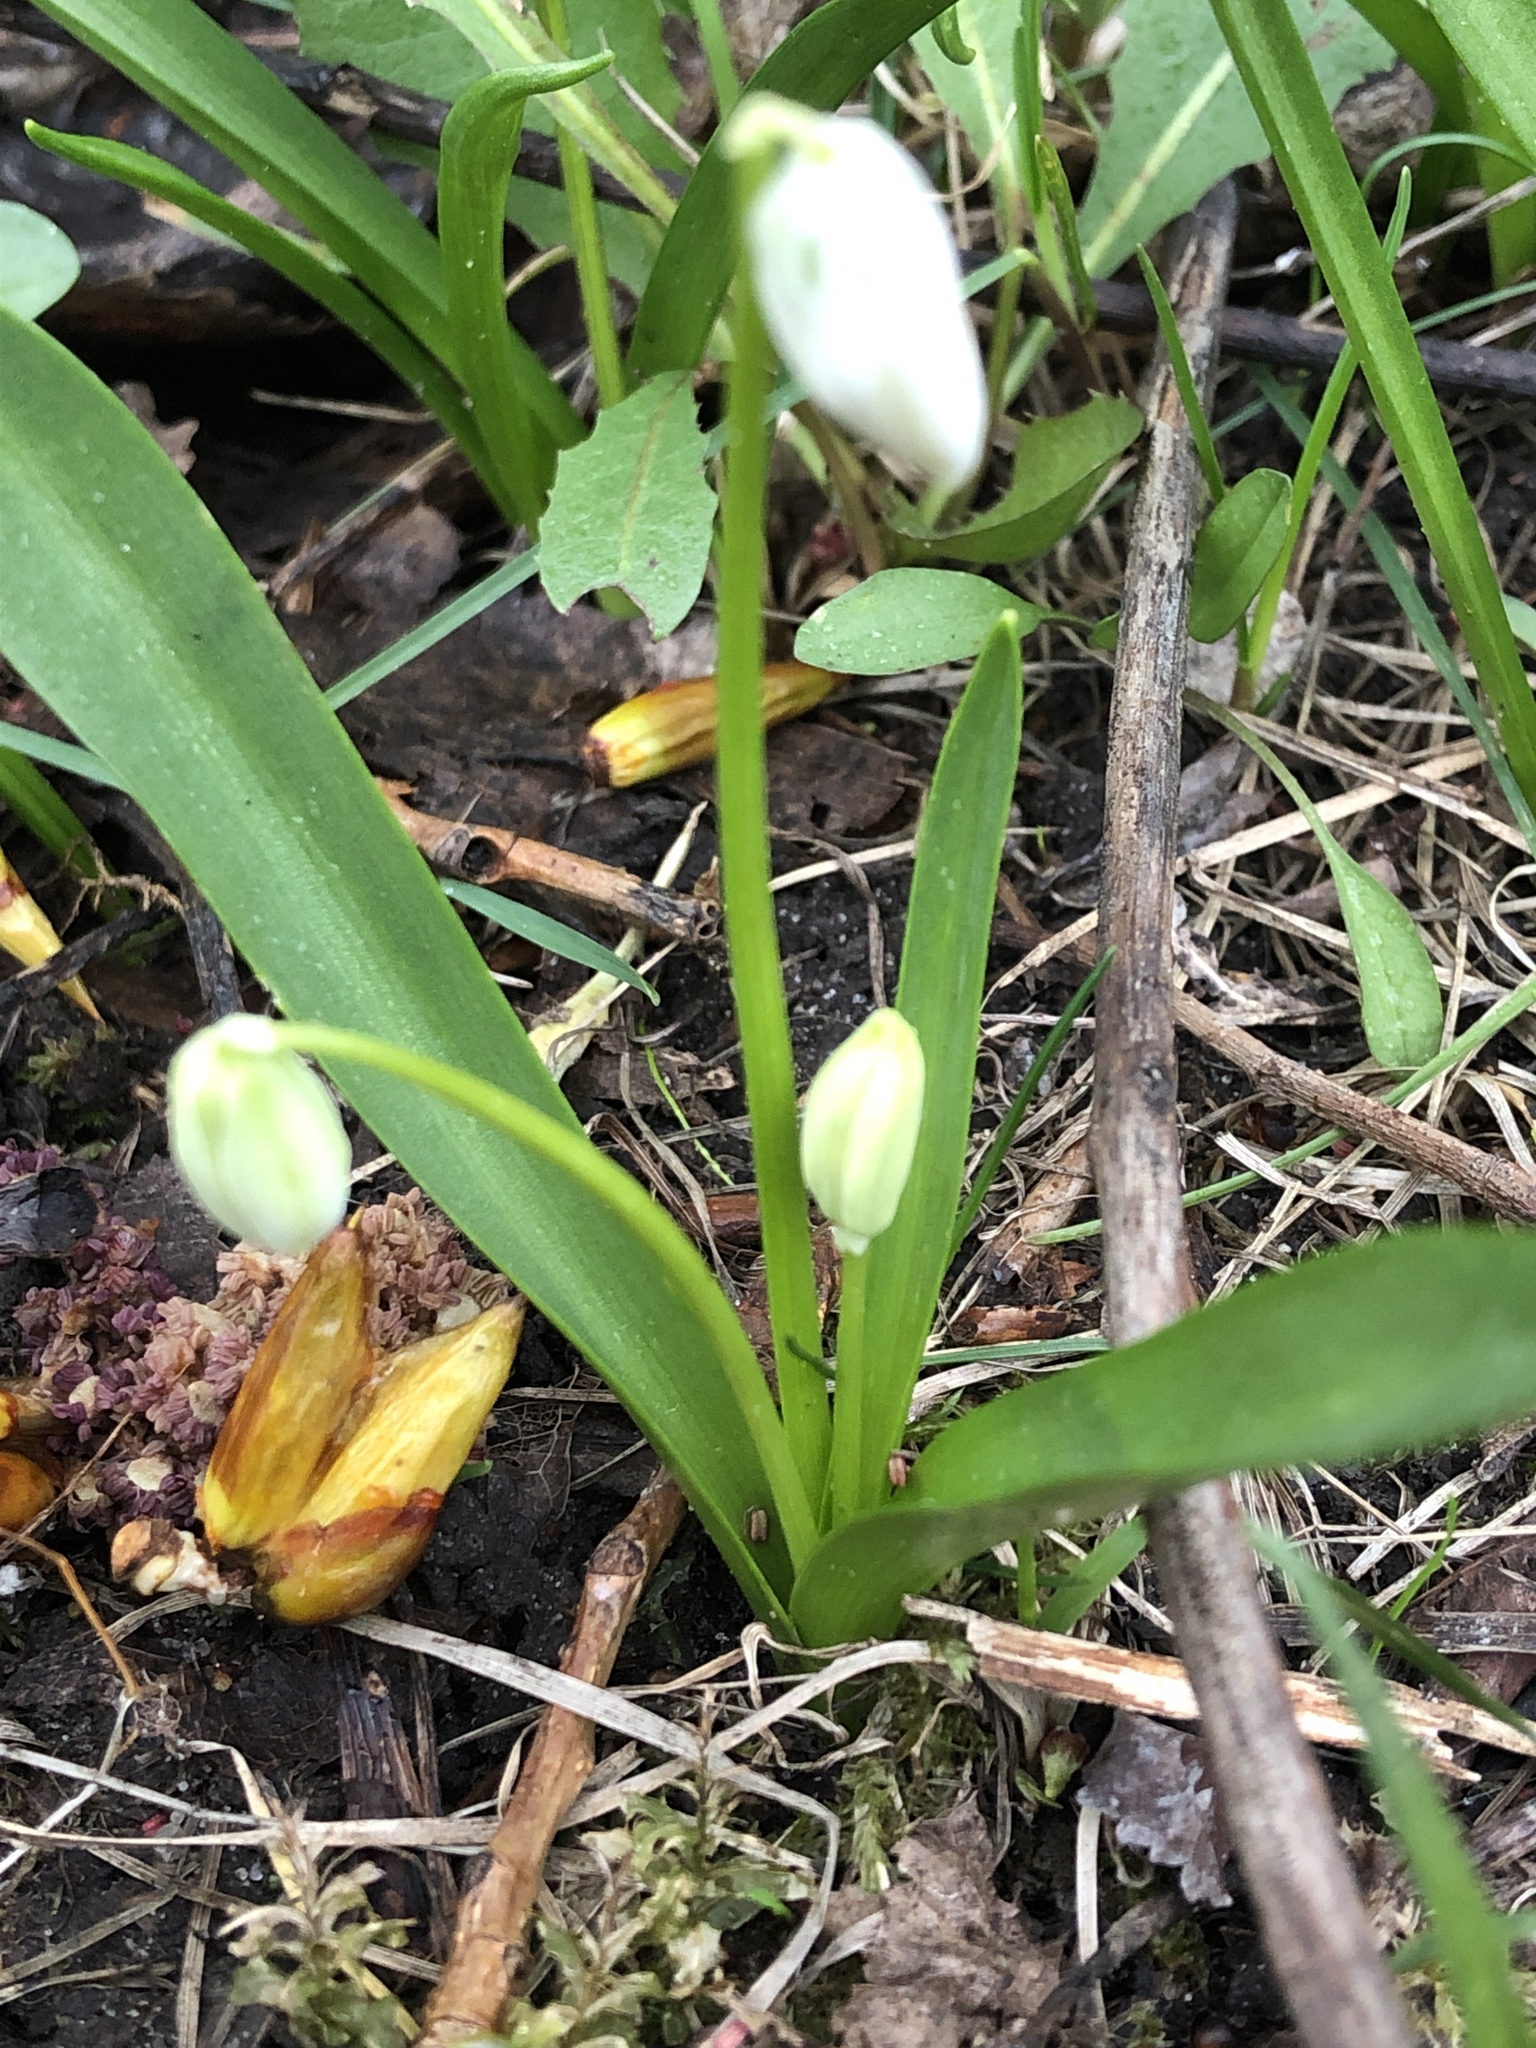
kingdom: Plantae
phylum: Tracheophyta
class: Liliopsida
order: Asparagales
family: Asparagaceae
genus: Scilla
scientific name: Scilla siberica
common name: Siberian squill
